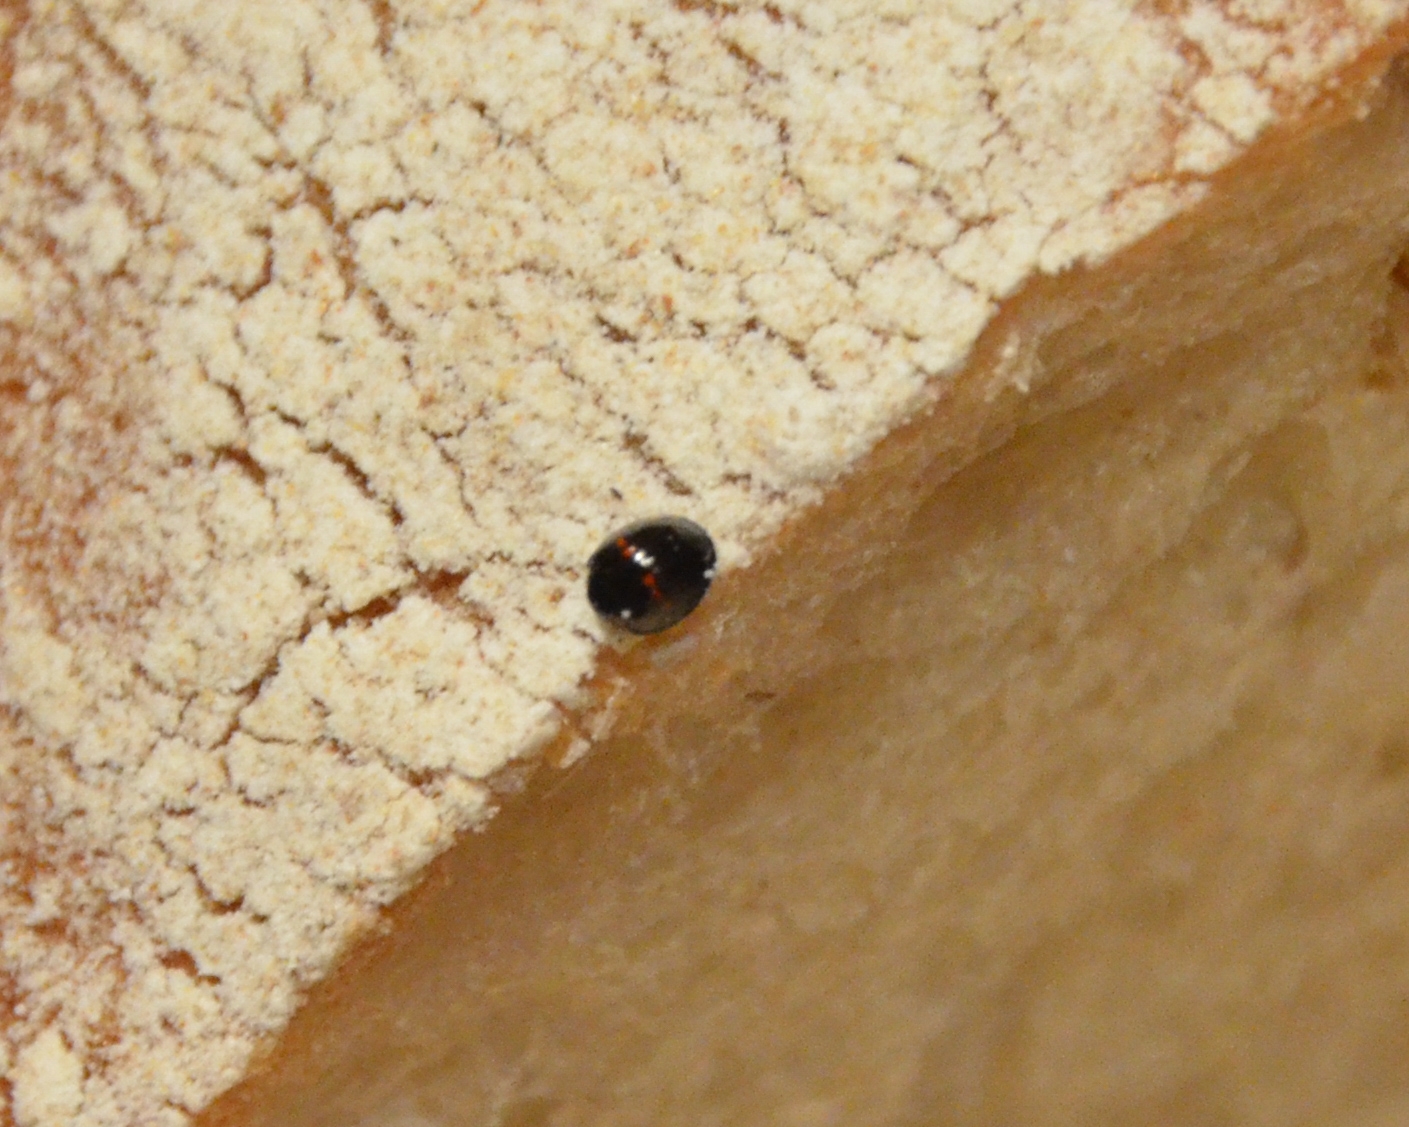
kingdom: Animalia
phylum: Arthropoda
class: Insecta
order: Coleoptera
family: Coccinellidae
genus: Chilocorus
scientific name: Chilocorus bipustulatus
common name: Heather ladybird
